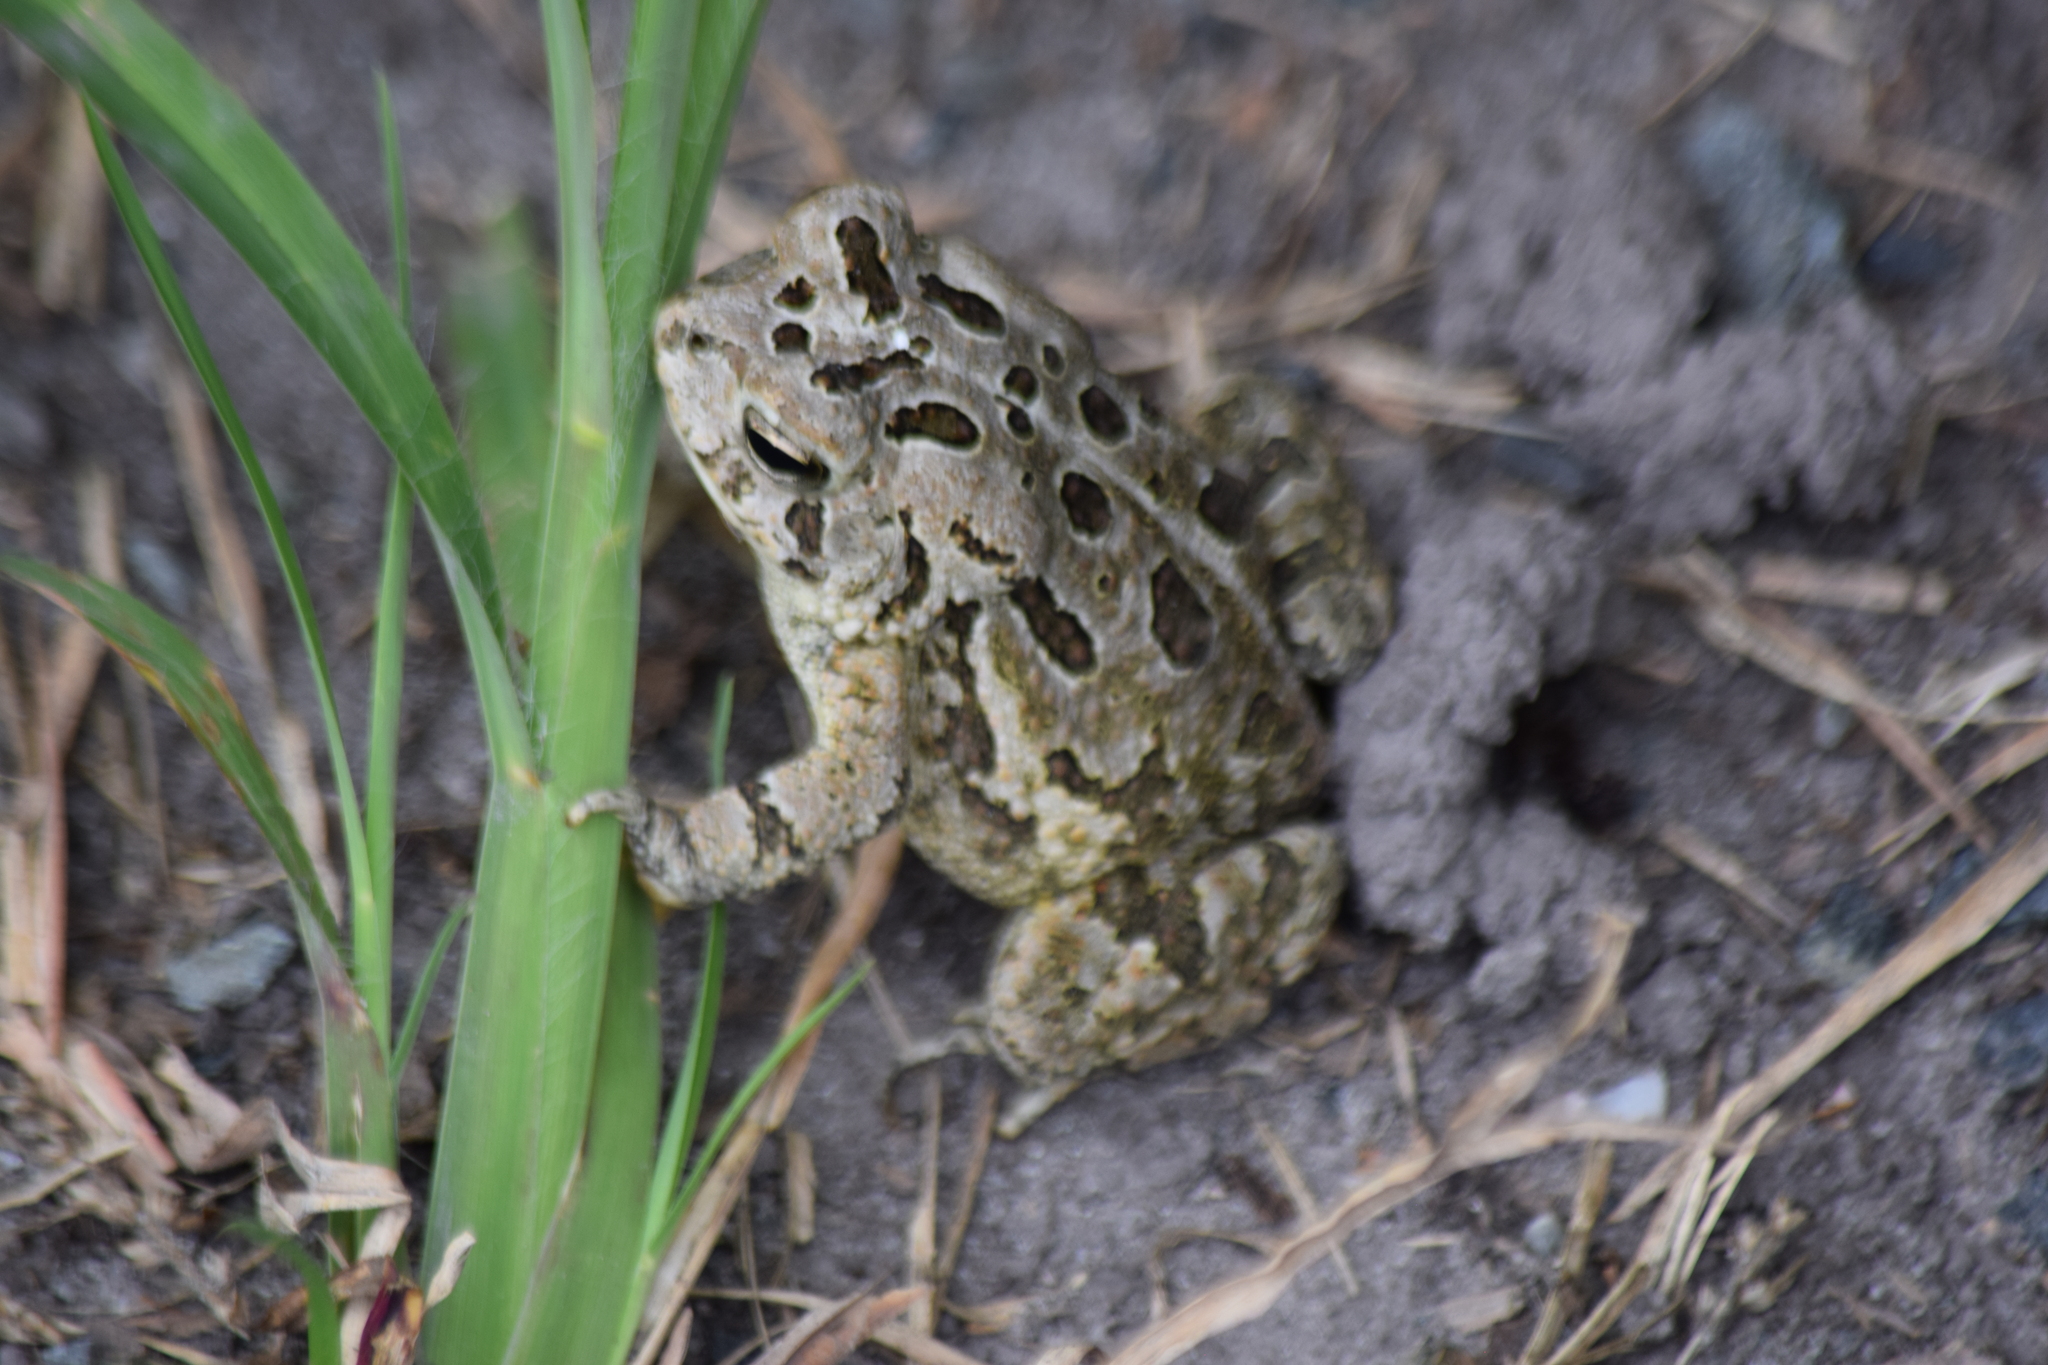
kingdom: Animalia
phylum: Chordata
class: Amphibia
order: Anura
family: Bufonidae
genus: Anaxyrus
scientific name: Anaxyrus fowleri
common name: Fowler's toad
